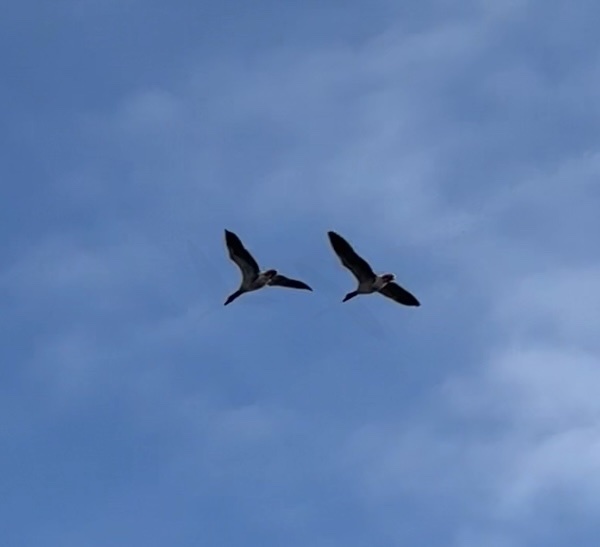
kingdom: Animalia
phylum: Chordata
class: Aves
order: Anseriformes
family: Anatidae
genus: Anser
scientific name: Anser anser
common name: Greylag goose
